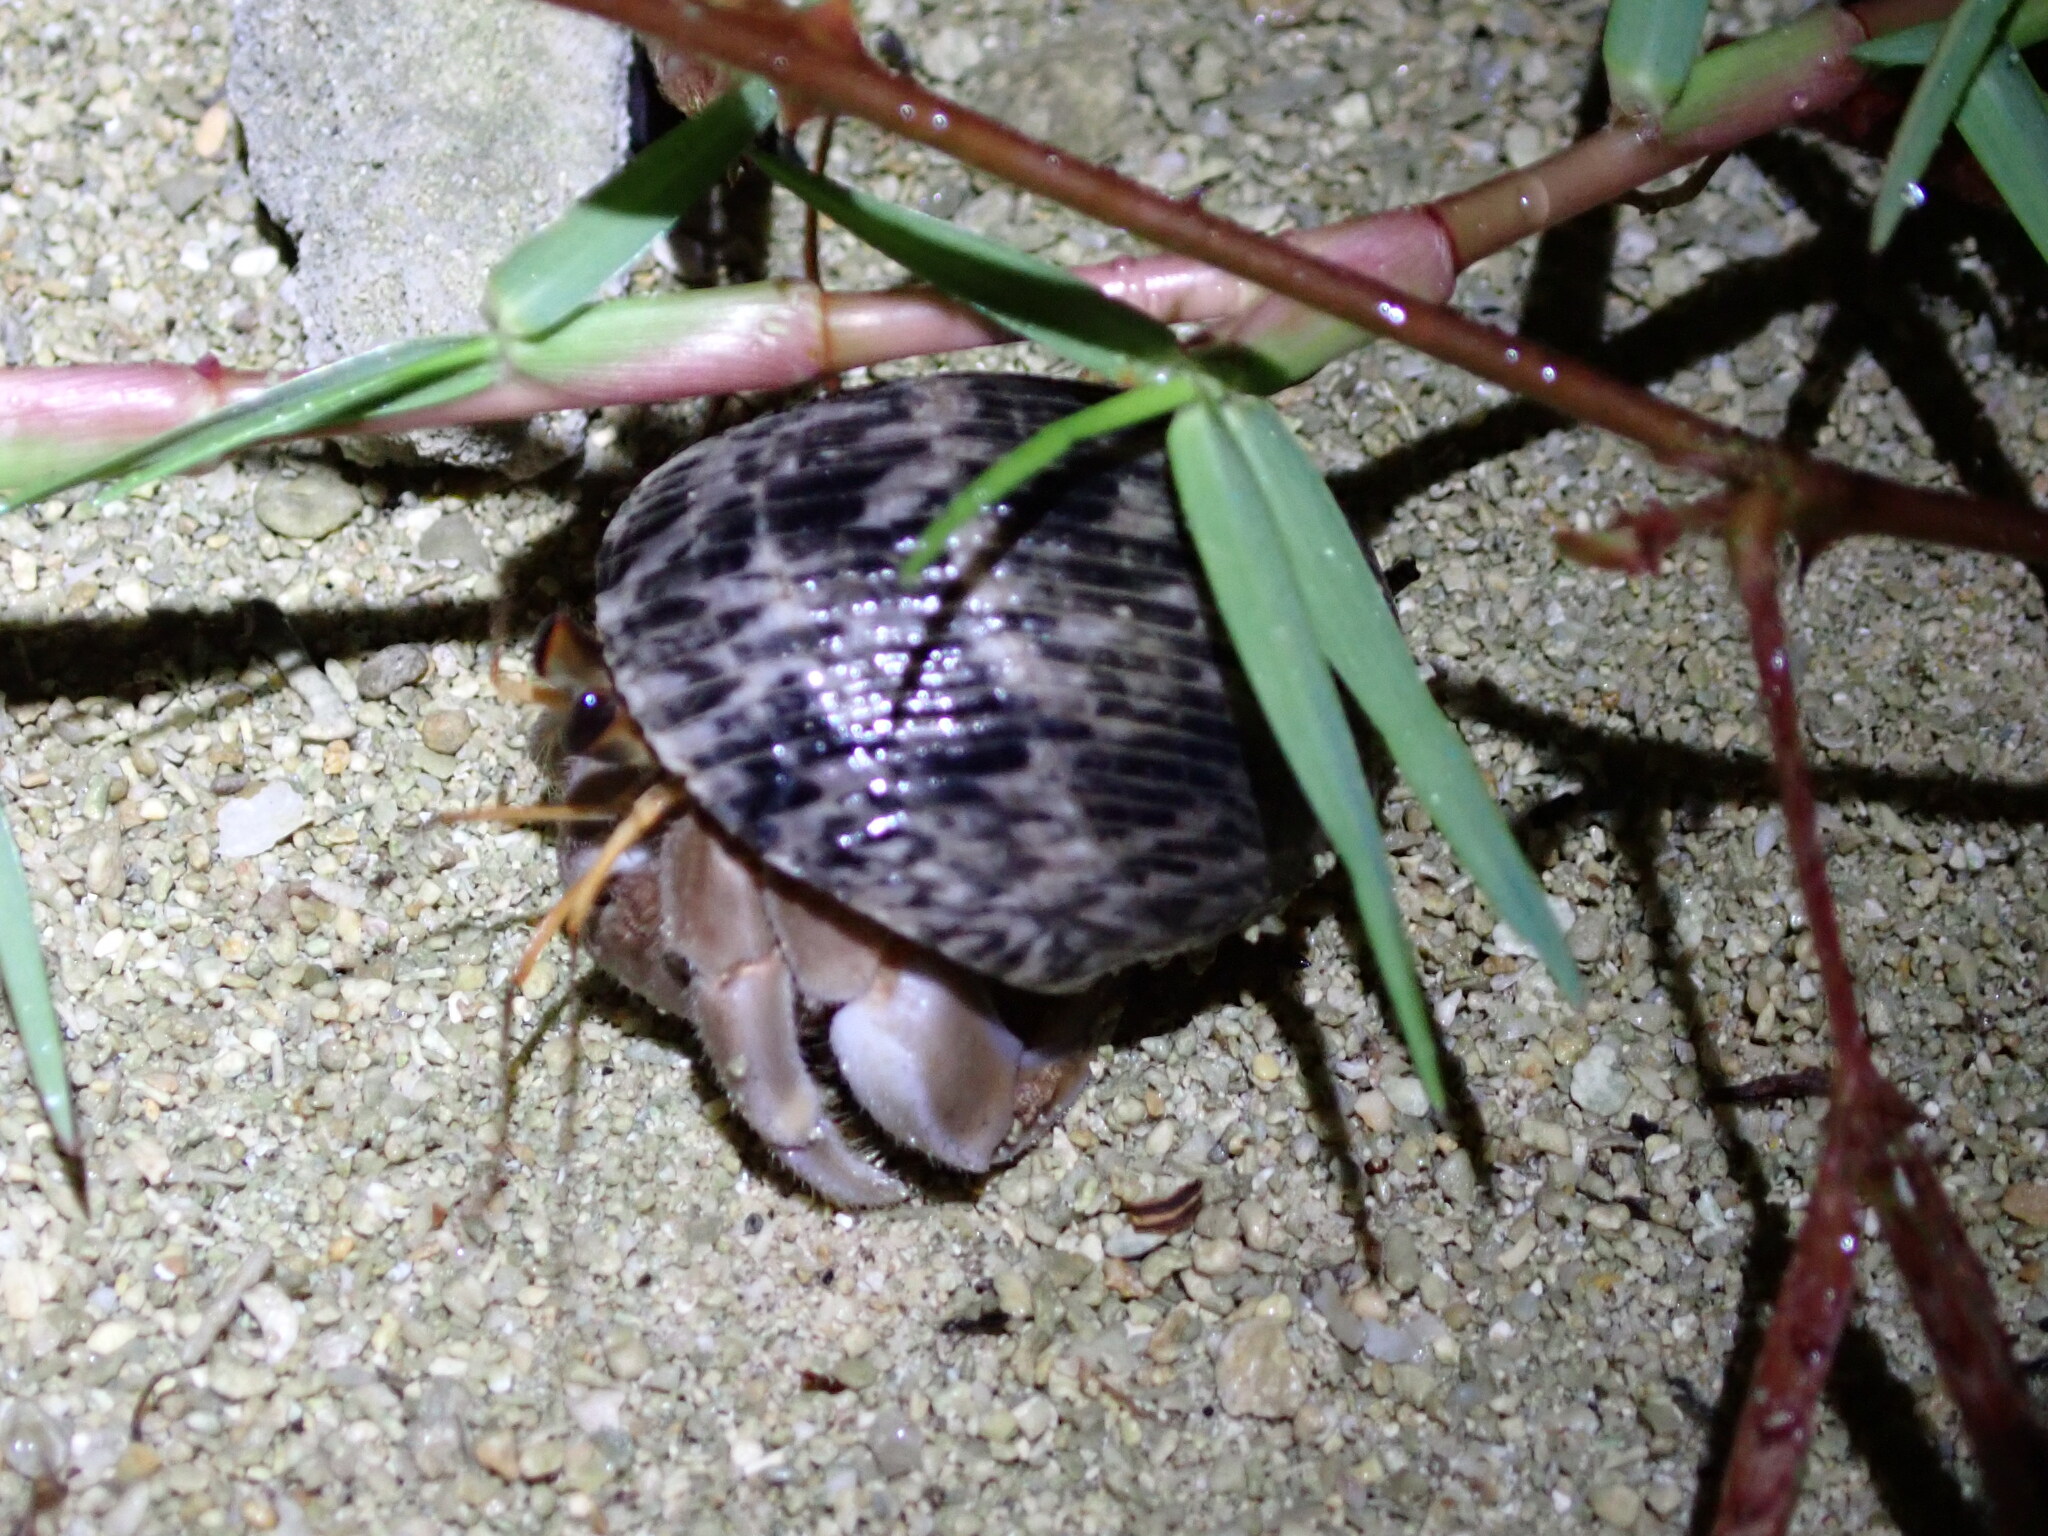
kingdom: Animalia
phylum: Arthropoda
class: Malacostraca
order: Decapoda
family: Coenobitidae
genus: Coenobita
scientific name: Coenobita rugosus
